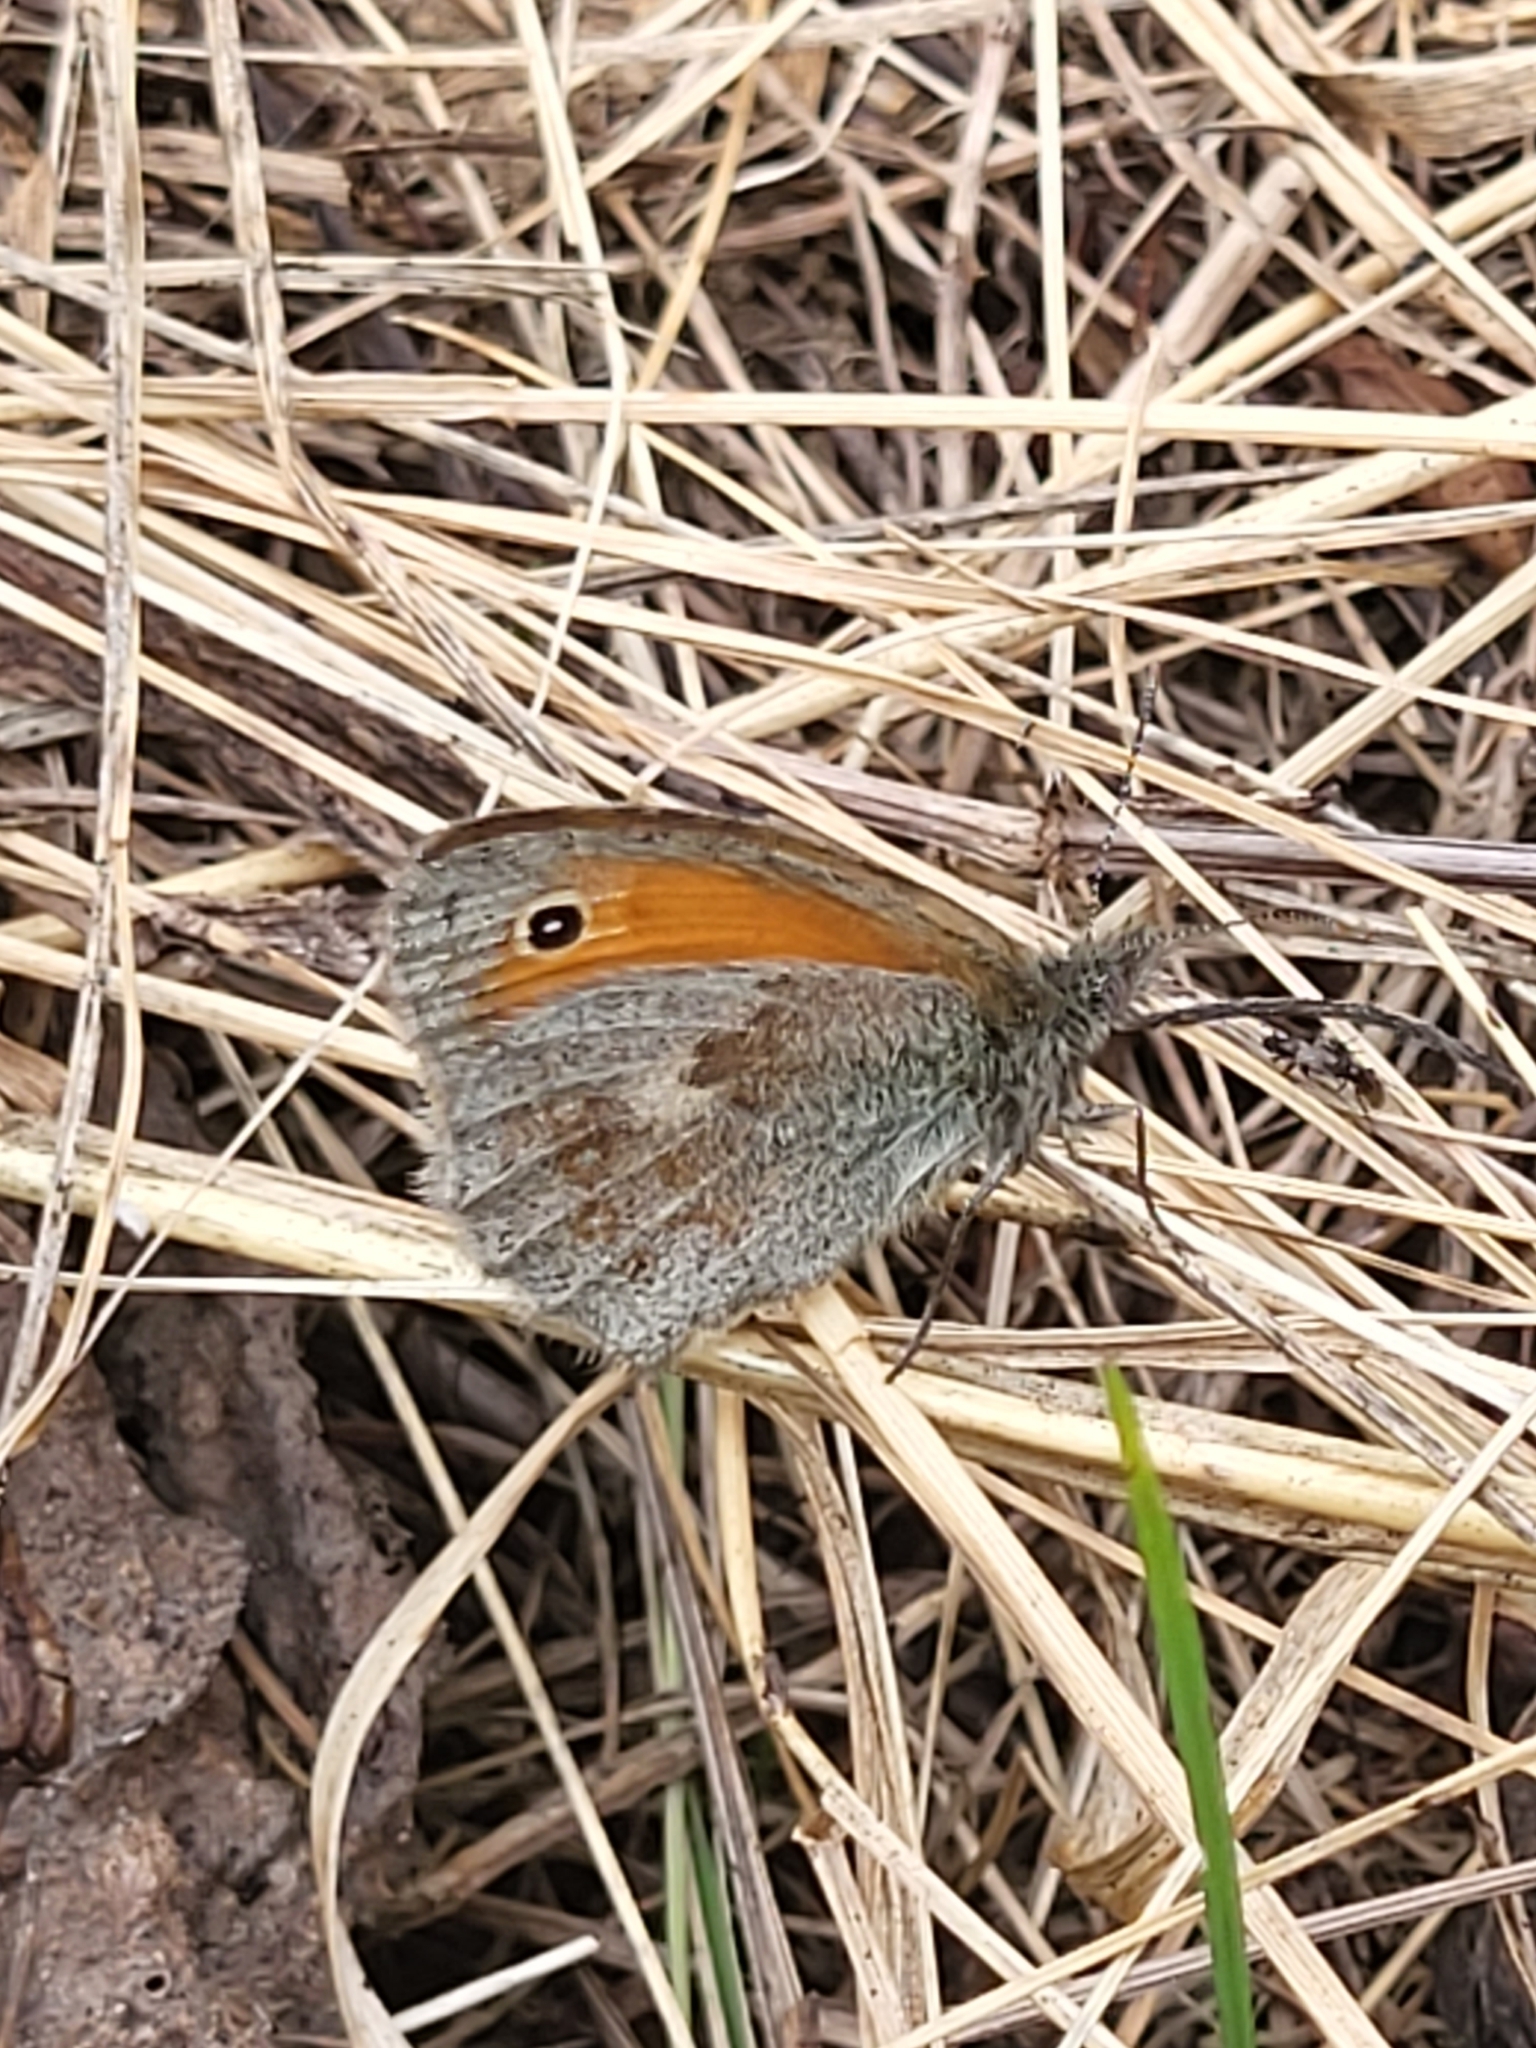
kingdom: Animalia
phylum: Arthropoda
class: Insecta
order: Lepidoptera
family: Nymphalidae
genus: Coenonympha
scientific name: Coenonympha pamphilus
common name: Small heath
